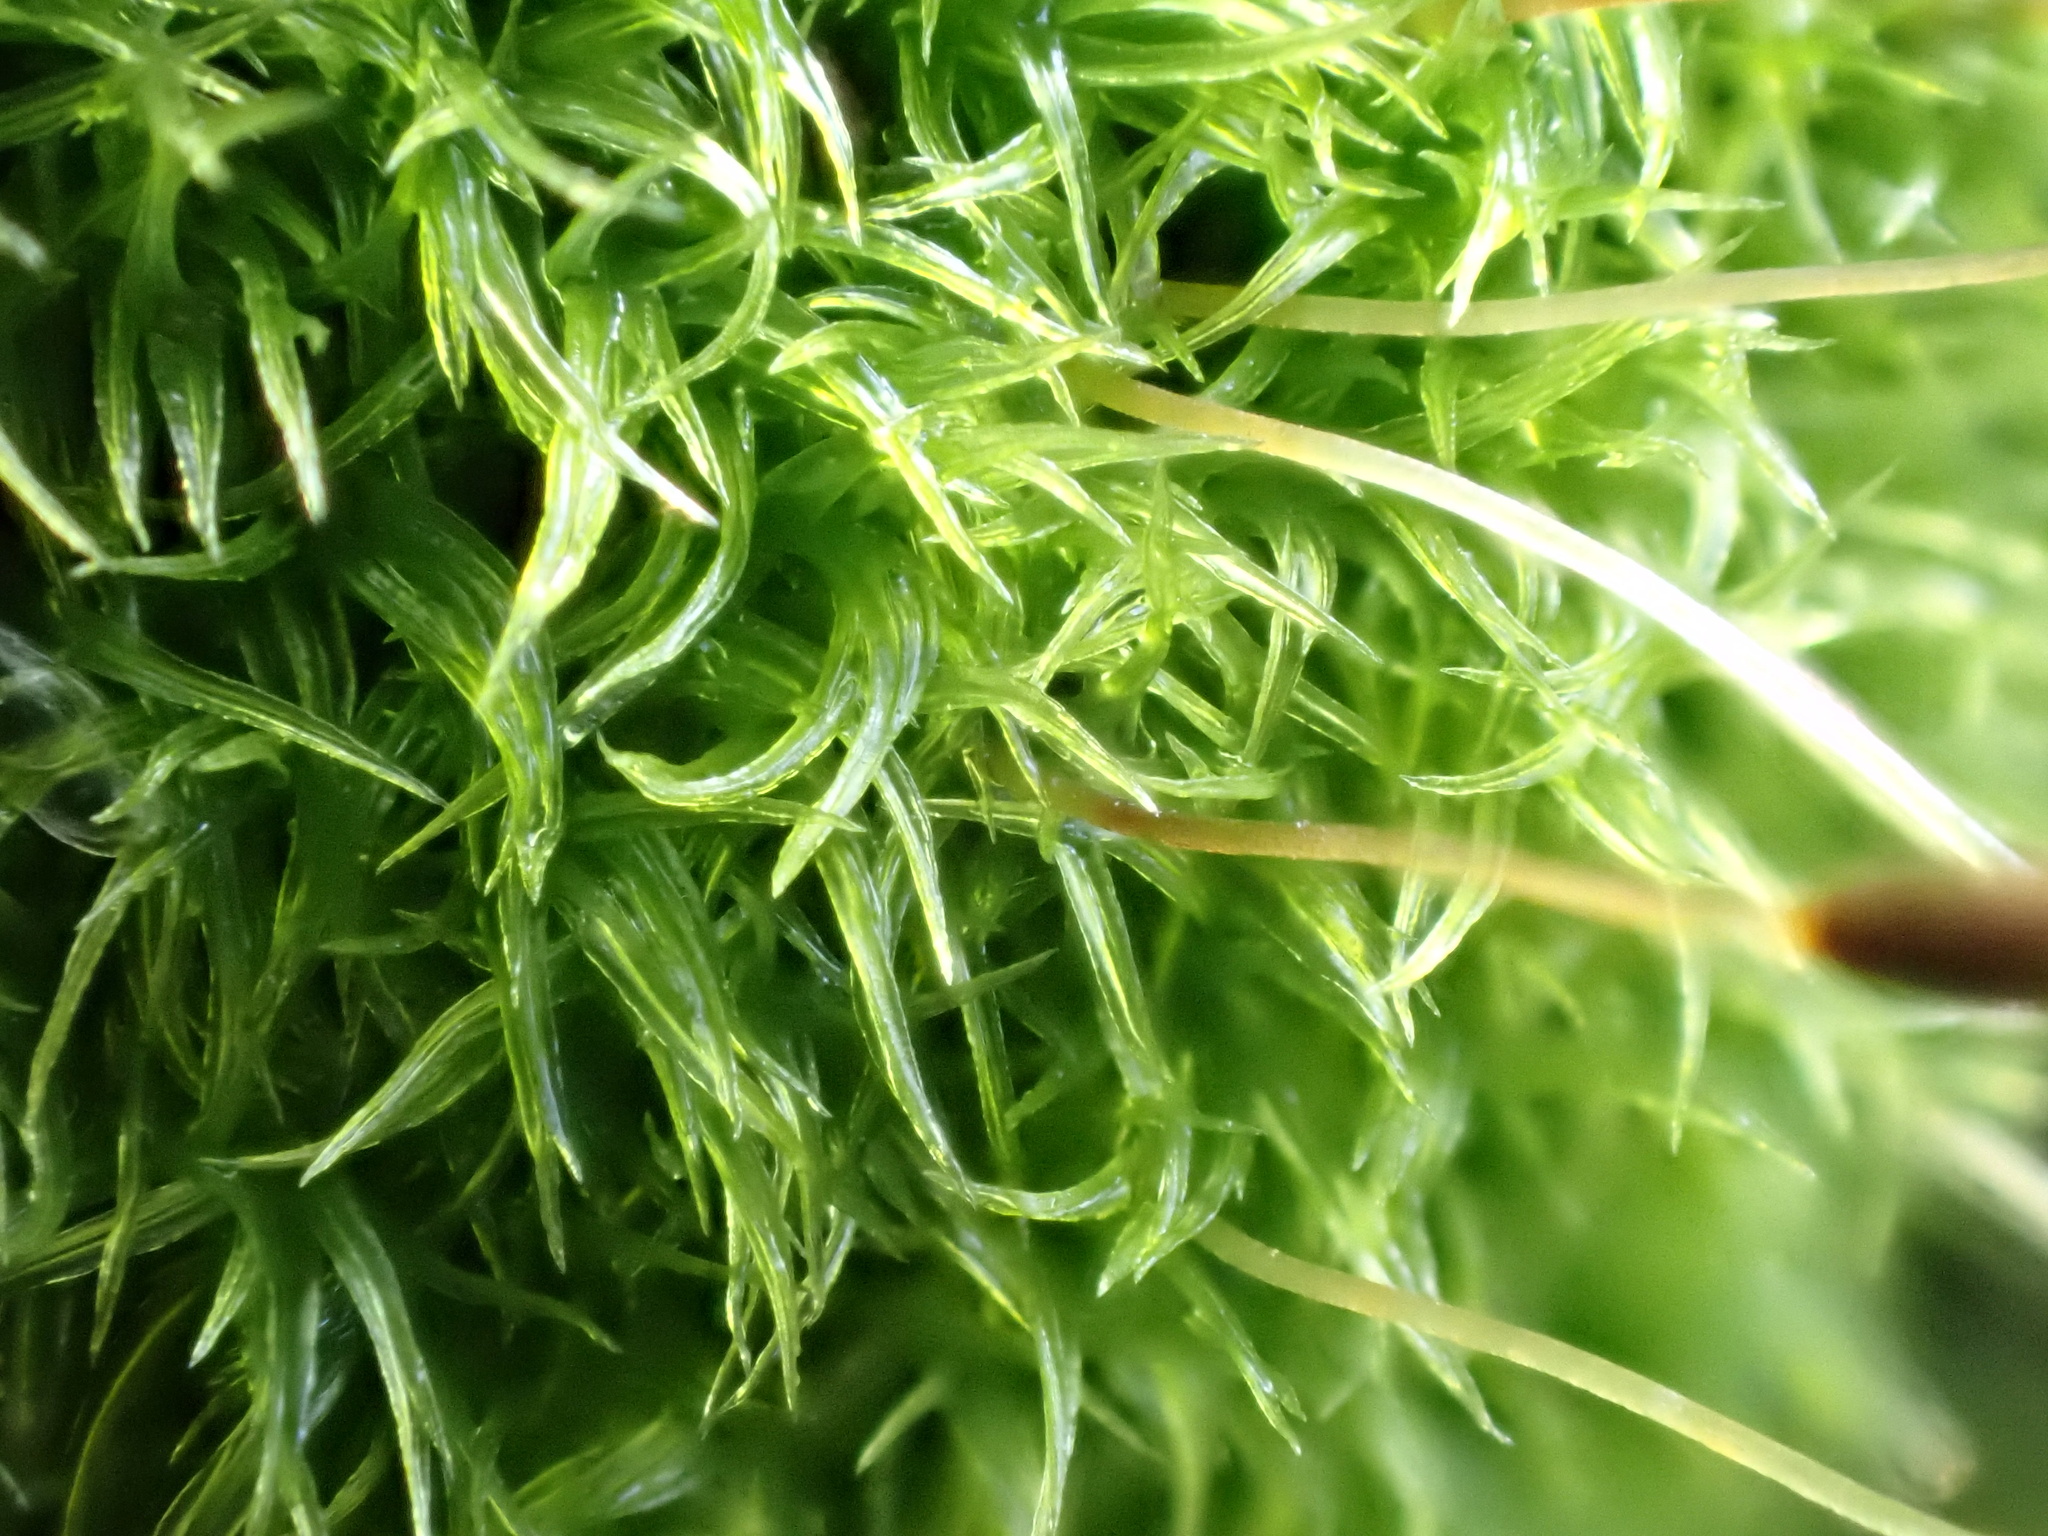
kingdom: Plantae
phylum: Bryophyta
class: Bryopsida
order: Dicranales
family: Rhabdoweisiaceae
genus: Dicranoweisia
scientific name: Dicranoweisia cirrata
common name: Common pincushion
